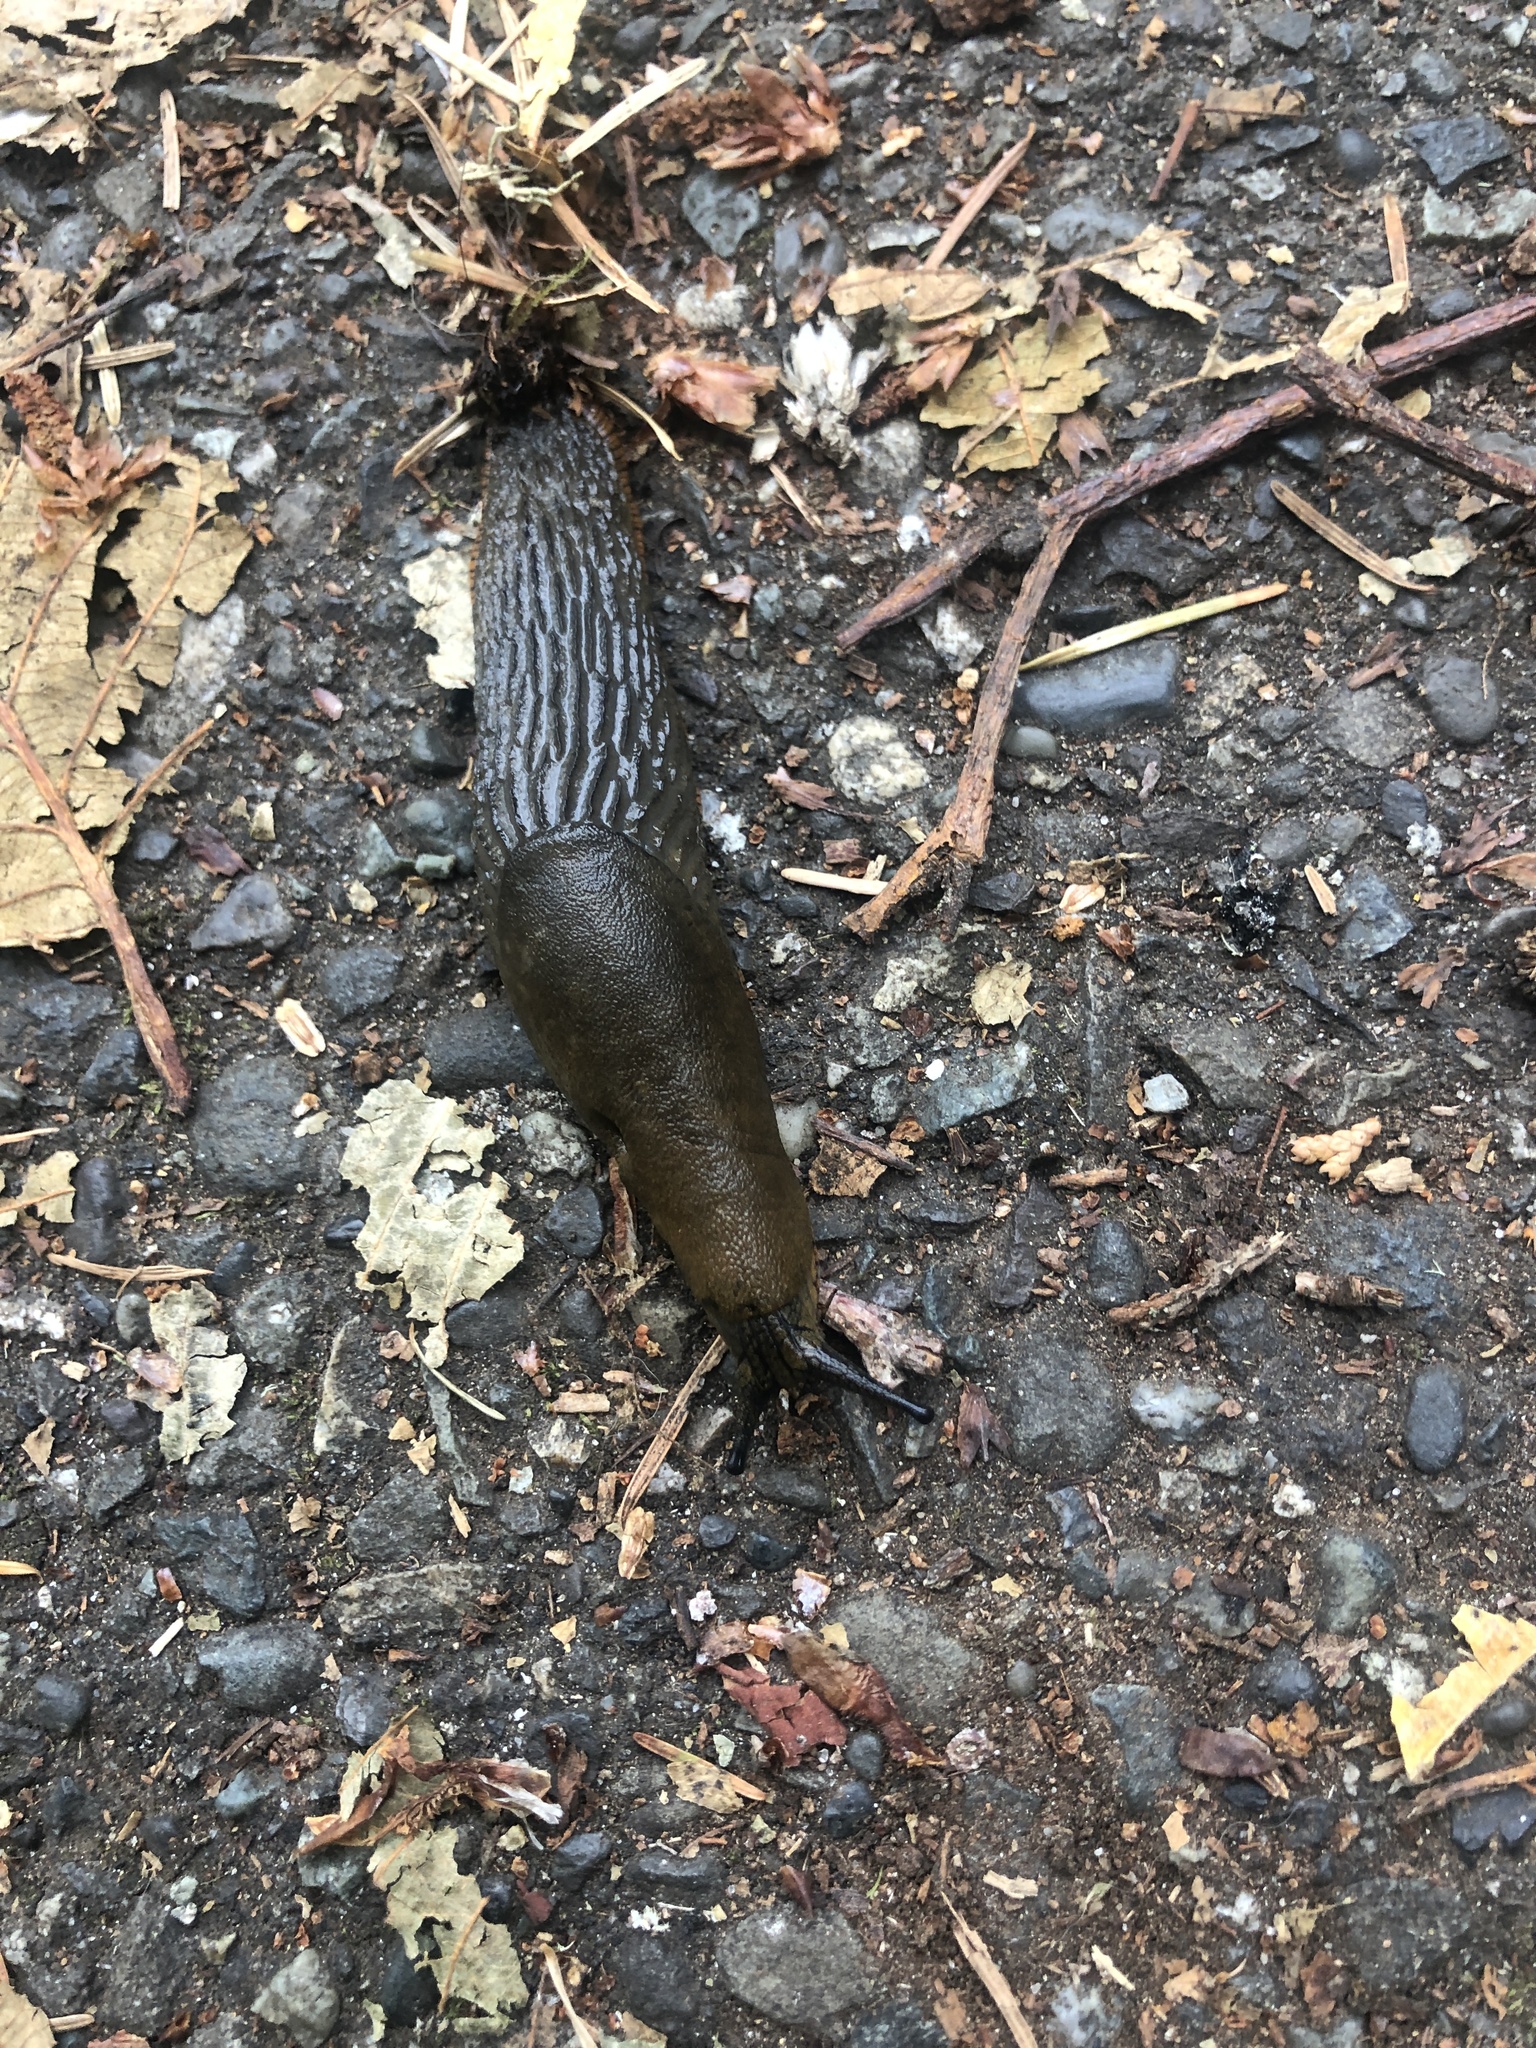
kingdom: Animalia
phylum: Mollusca
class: Gastropoda
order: Stylommatophora
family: Arionidae
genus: Arion
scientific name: Arion rufus
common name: Chocolate arion
